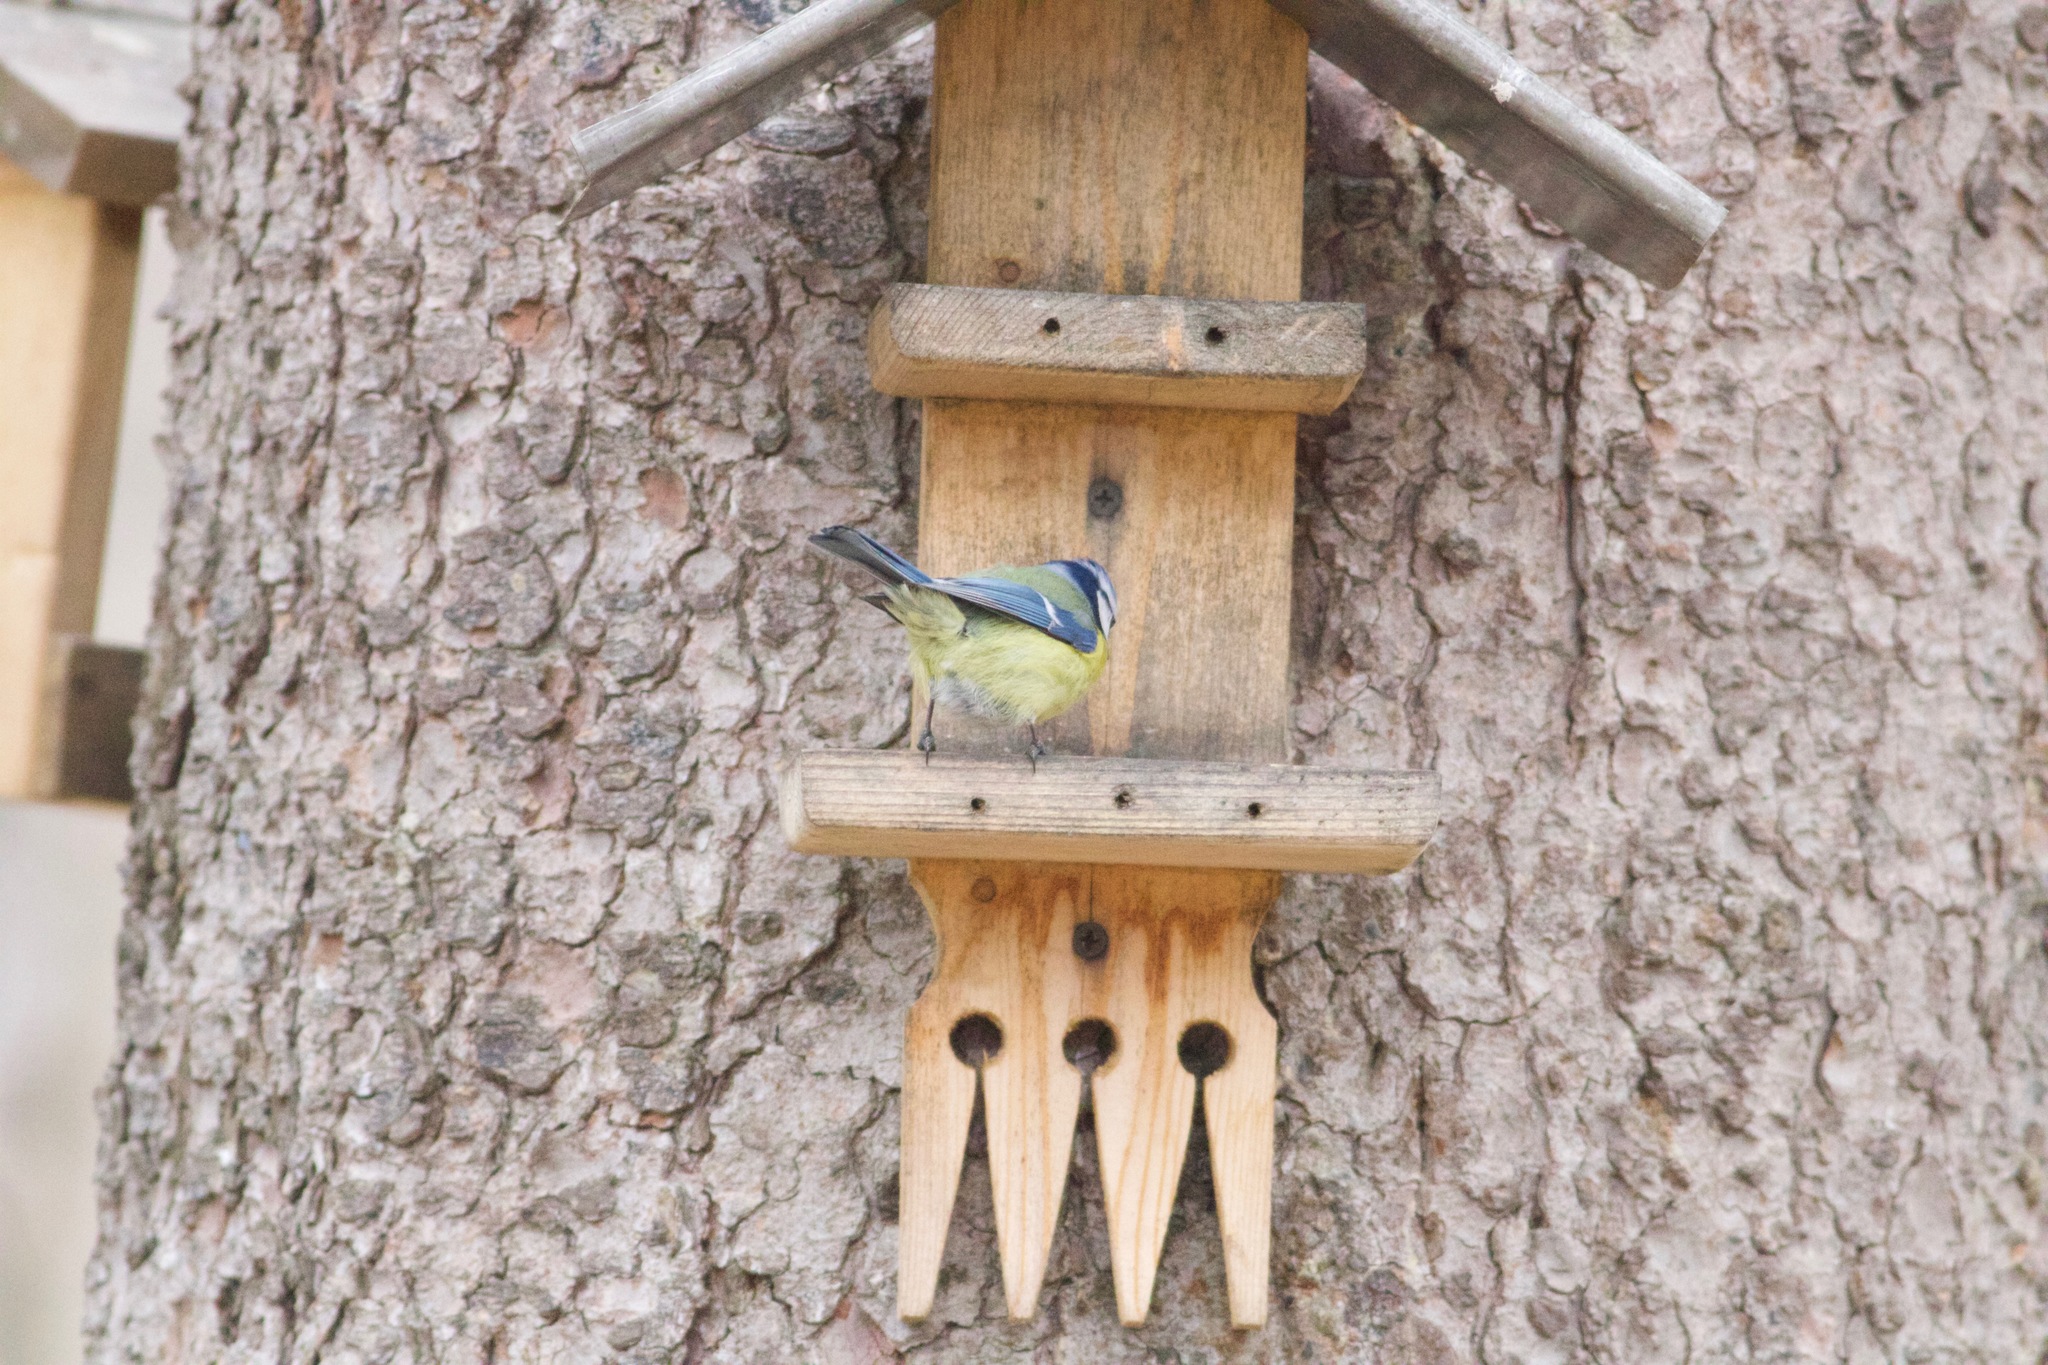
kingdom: Animalia
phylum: Chordata
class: Aves
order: Passeriformes
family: Paridae
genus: Cyanistes
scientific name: Cyanistes caeruleus
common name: Eurasian blue tit
